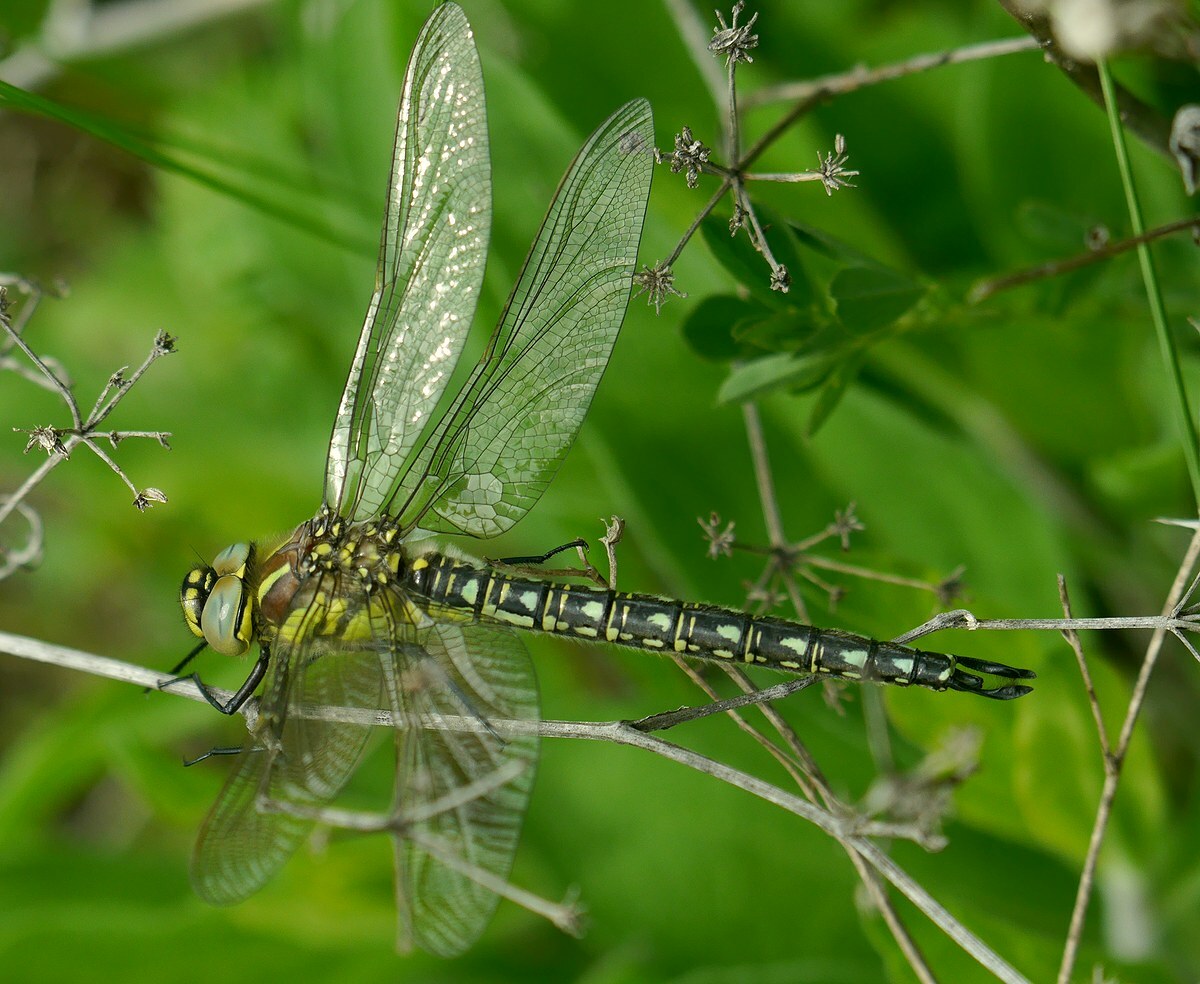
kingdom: Animalia
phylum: Arthropoda
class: Insecta
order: Odonata
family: Aeshnidae
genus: Brachytron
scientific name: Brachytron pratense
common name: Hairy hawker
